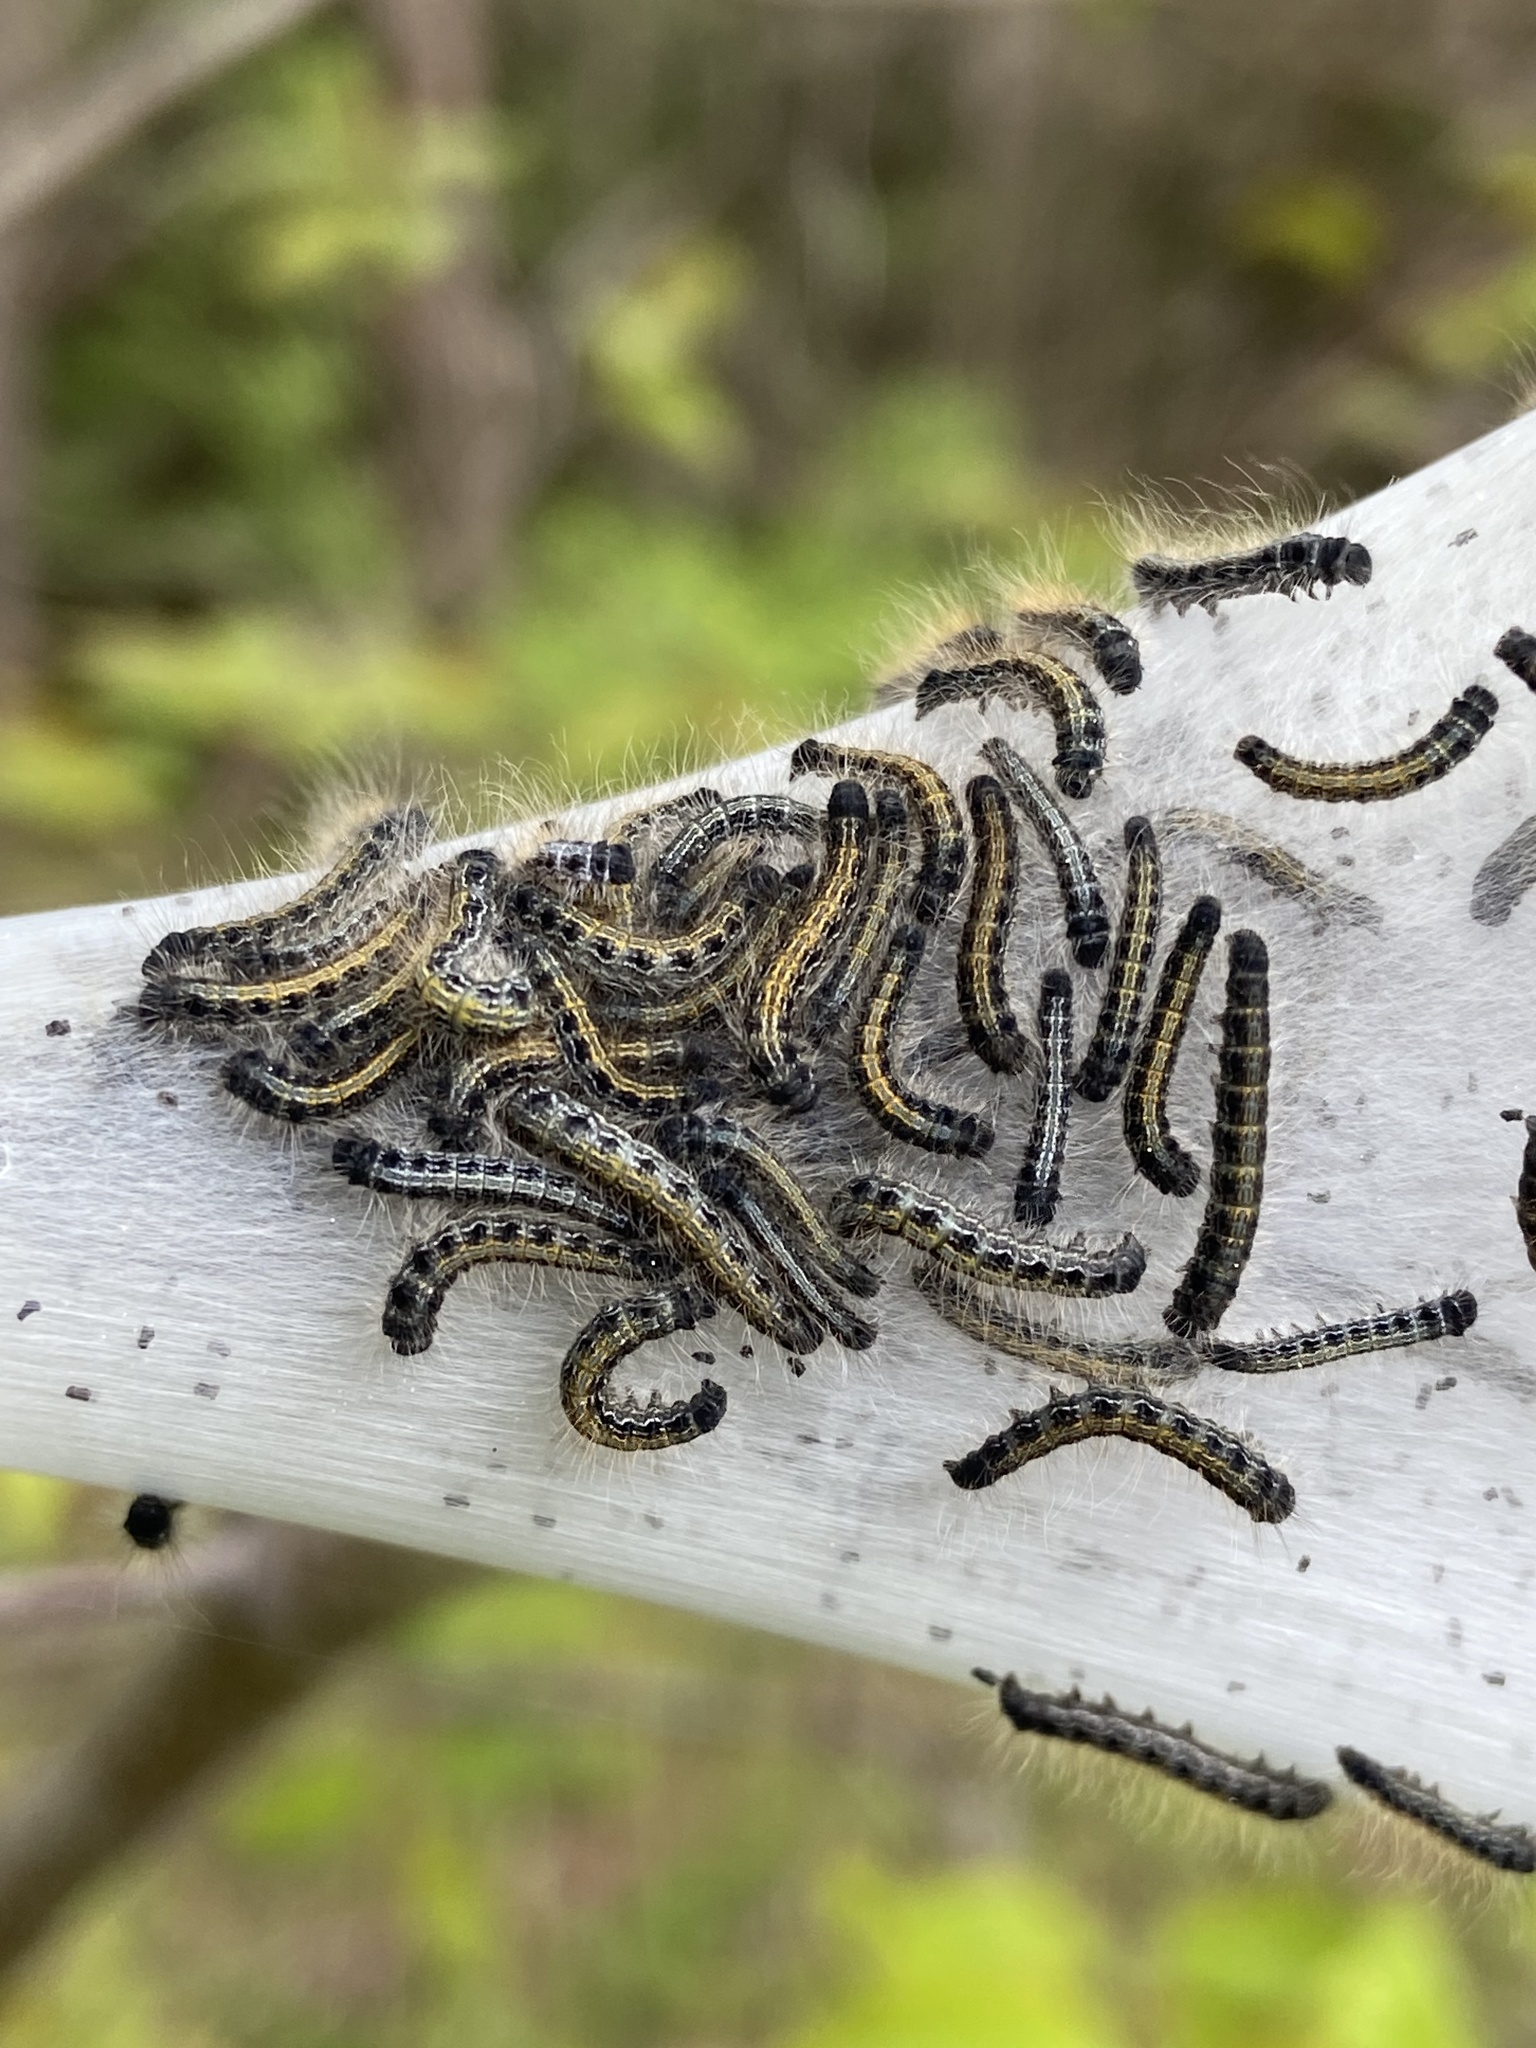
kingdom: Animalia
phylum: Arthropoda
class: Insecta
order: Lepidoptera
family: Lasiocampidae
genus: Malacosoma
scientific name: Malacosoma americana
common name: Eastern tent caterpillar moth
